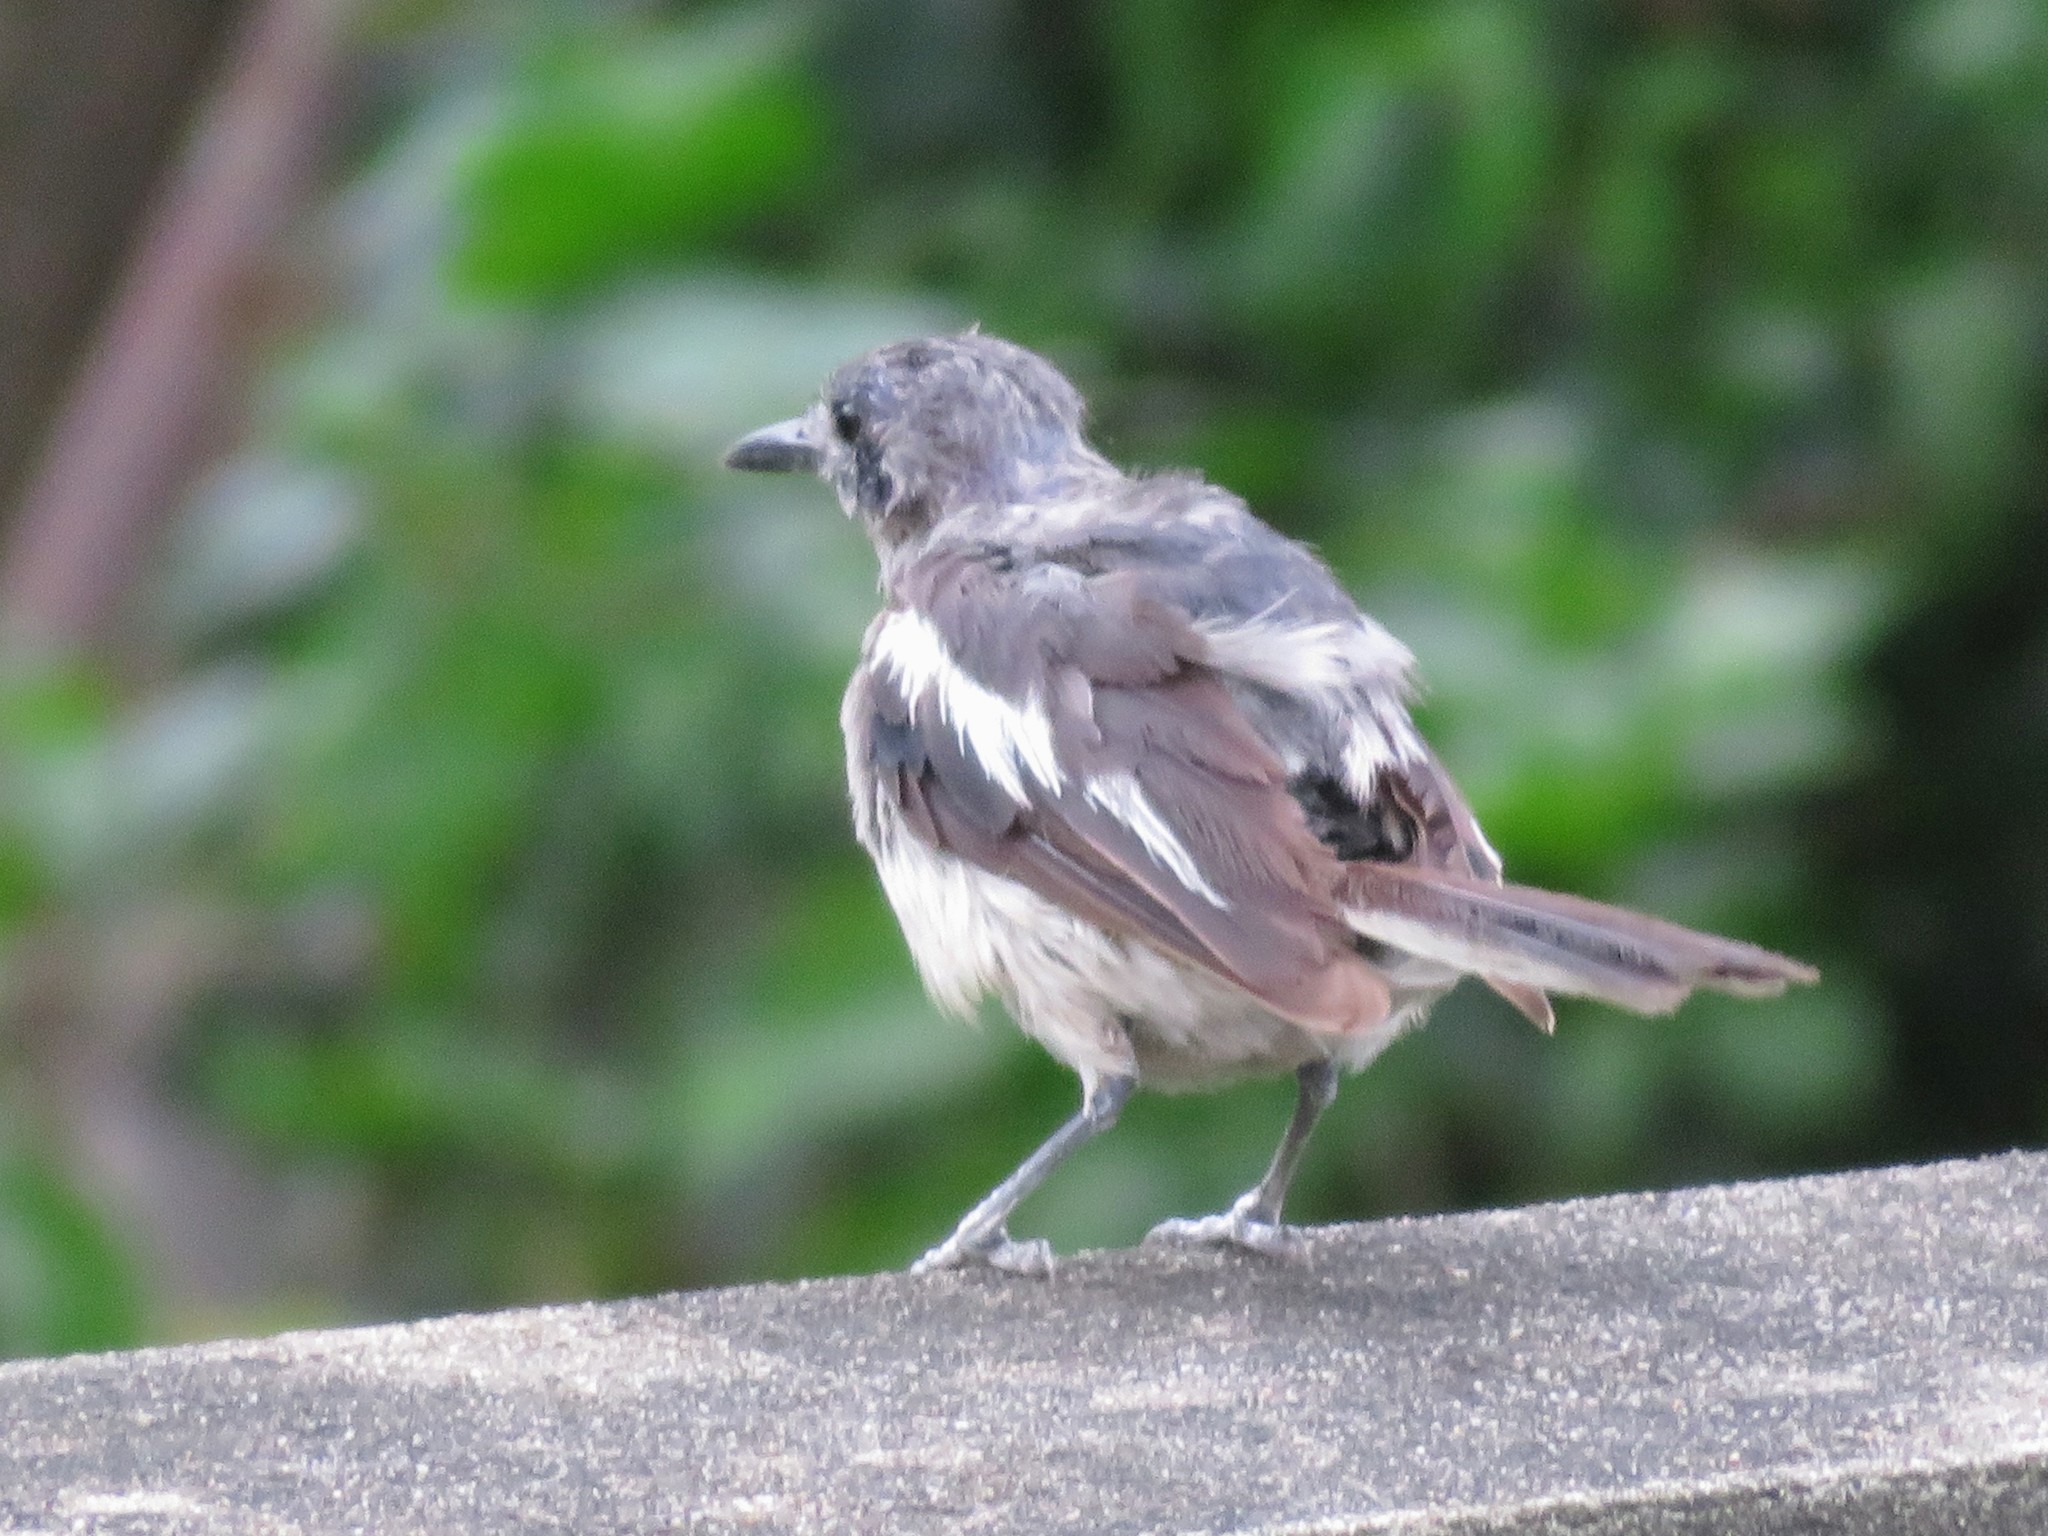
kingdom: Animalia
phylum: Chordata
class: Aves
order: Passeriformes
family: Muscicapidae
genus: Copsychus
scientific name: Copsychus saularis
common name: Oriental magpie-robin
